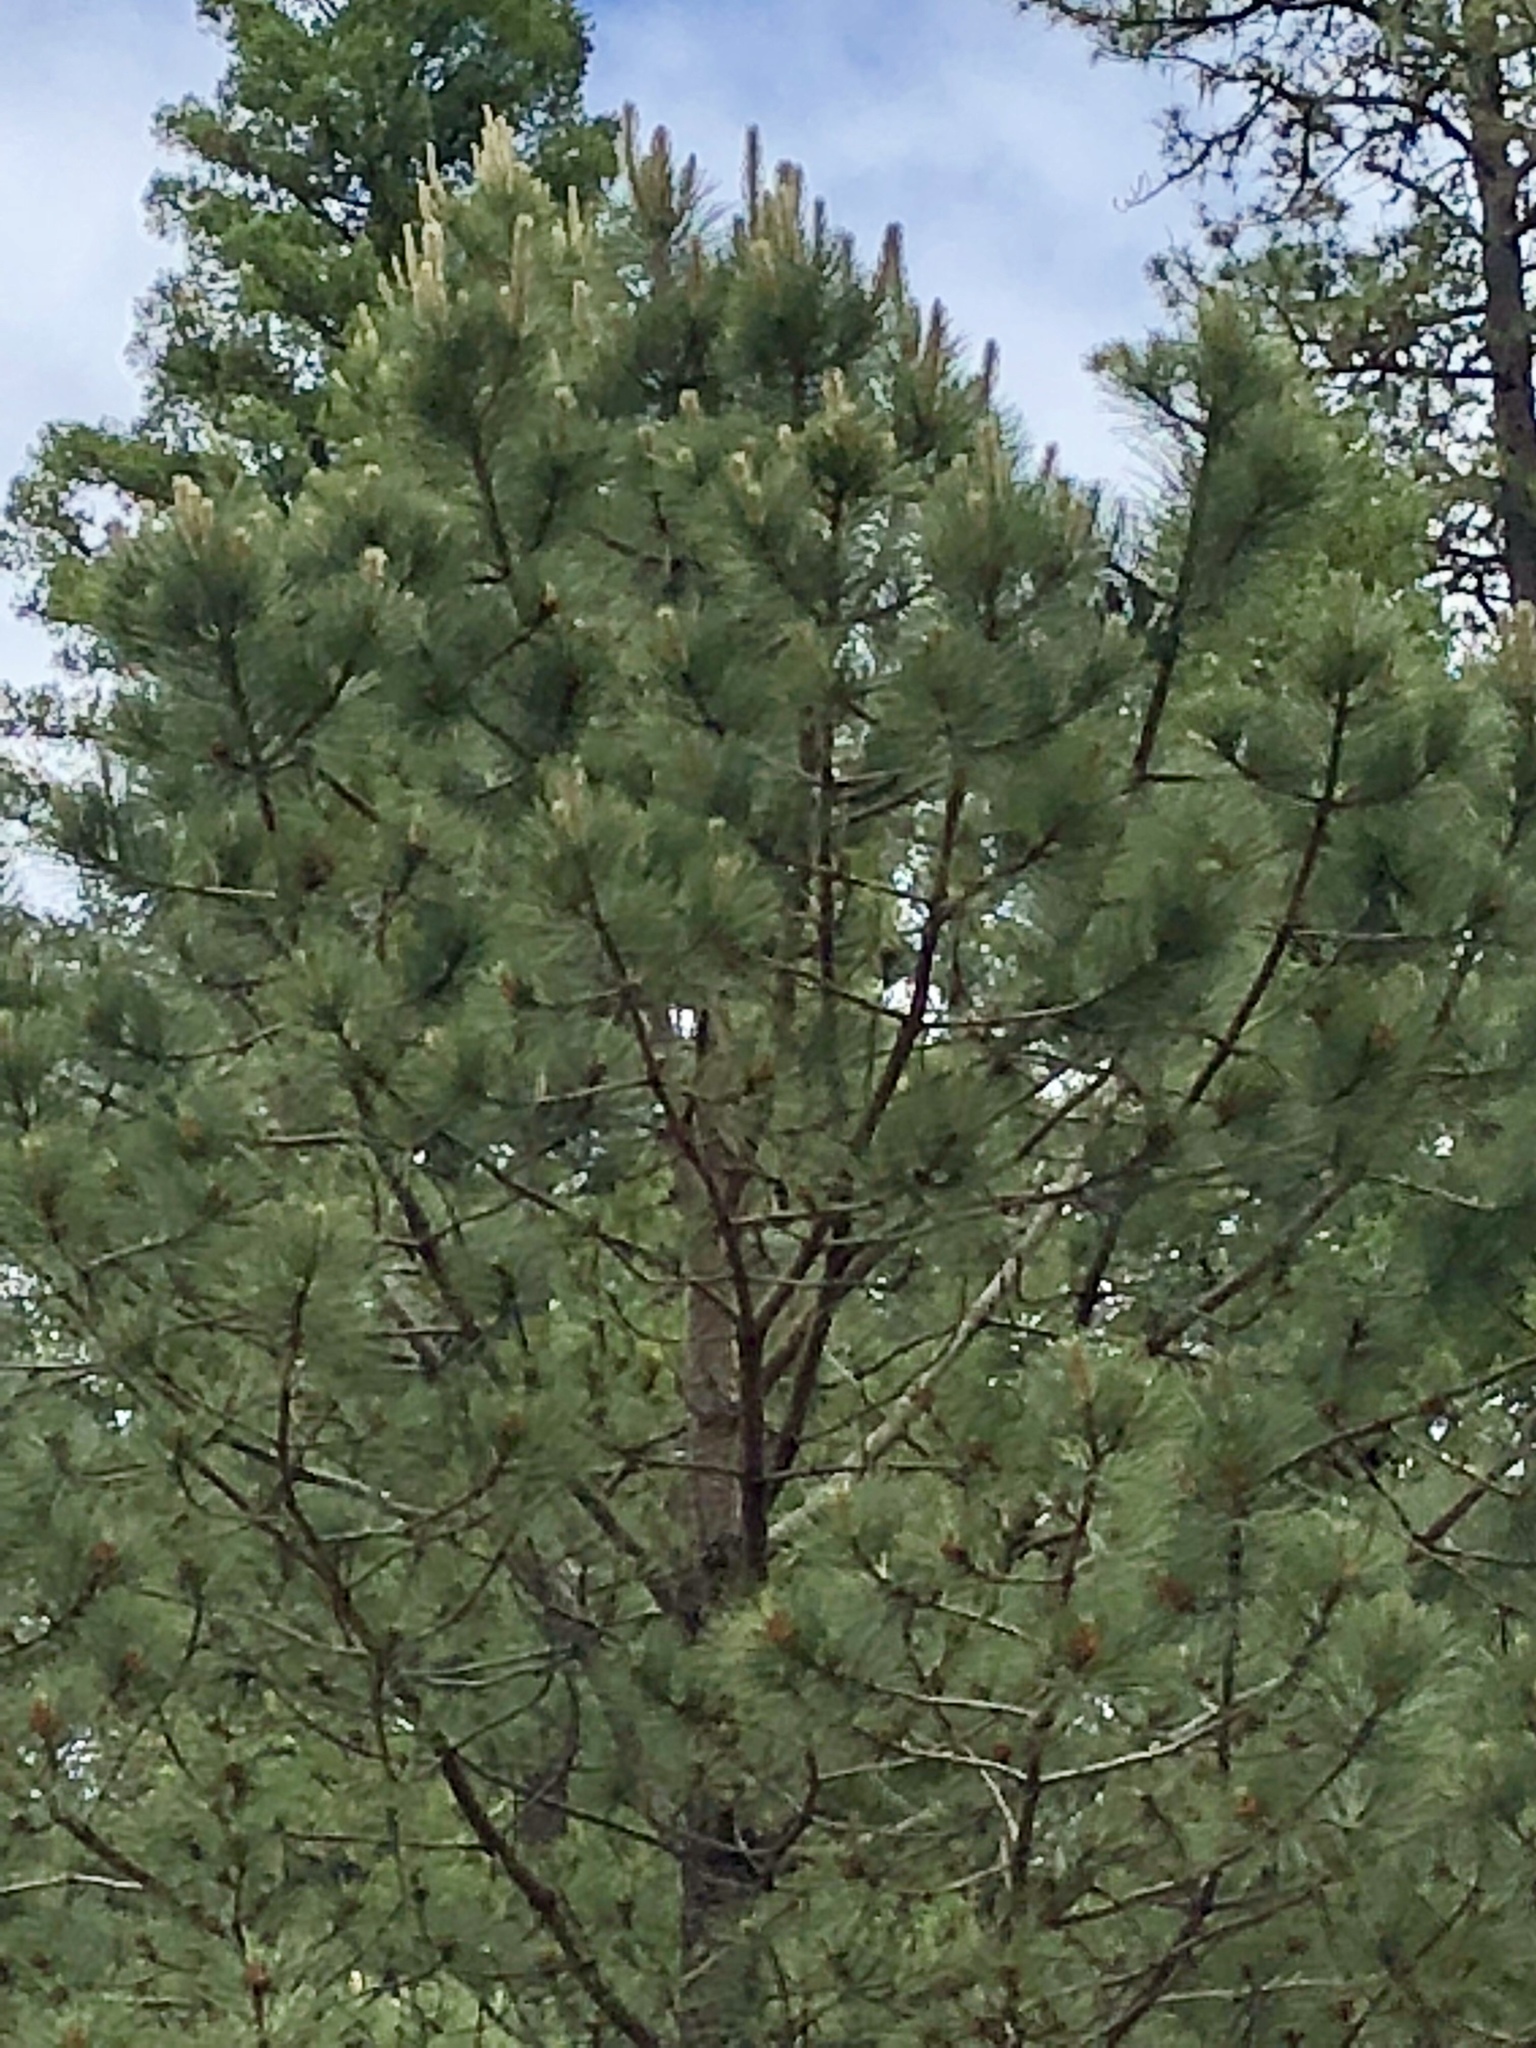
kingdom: Plantae
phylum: Tracheophyta
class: Pinopsida
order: Pinales
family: Pinaceae
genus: Pinus
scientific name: Pinus ponderosa
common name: Western yellow-pine
